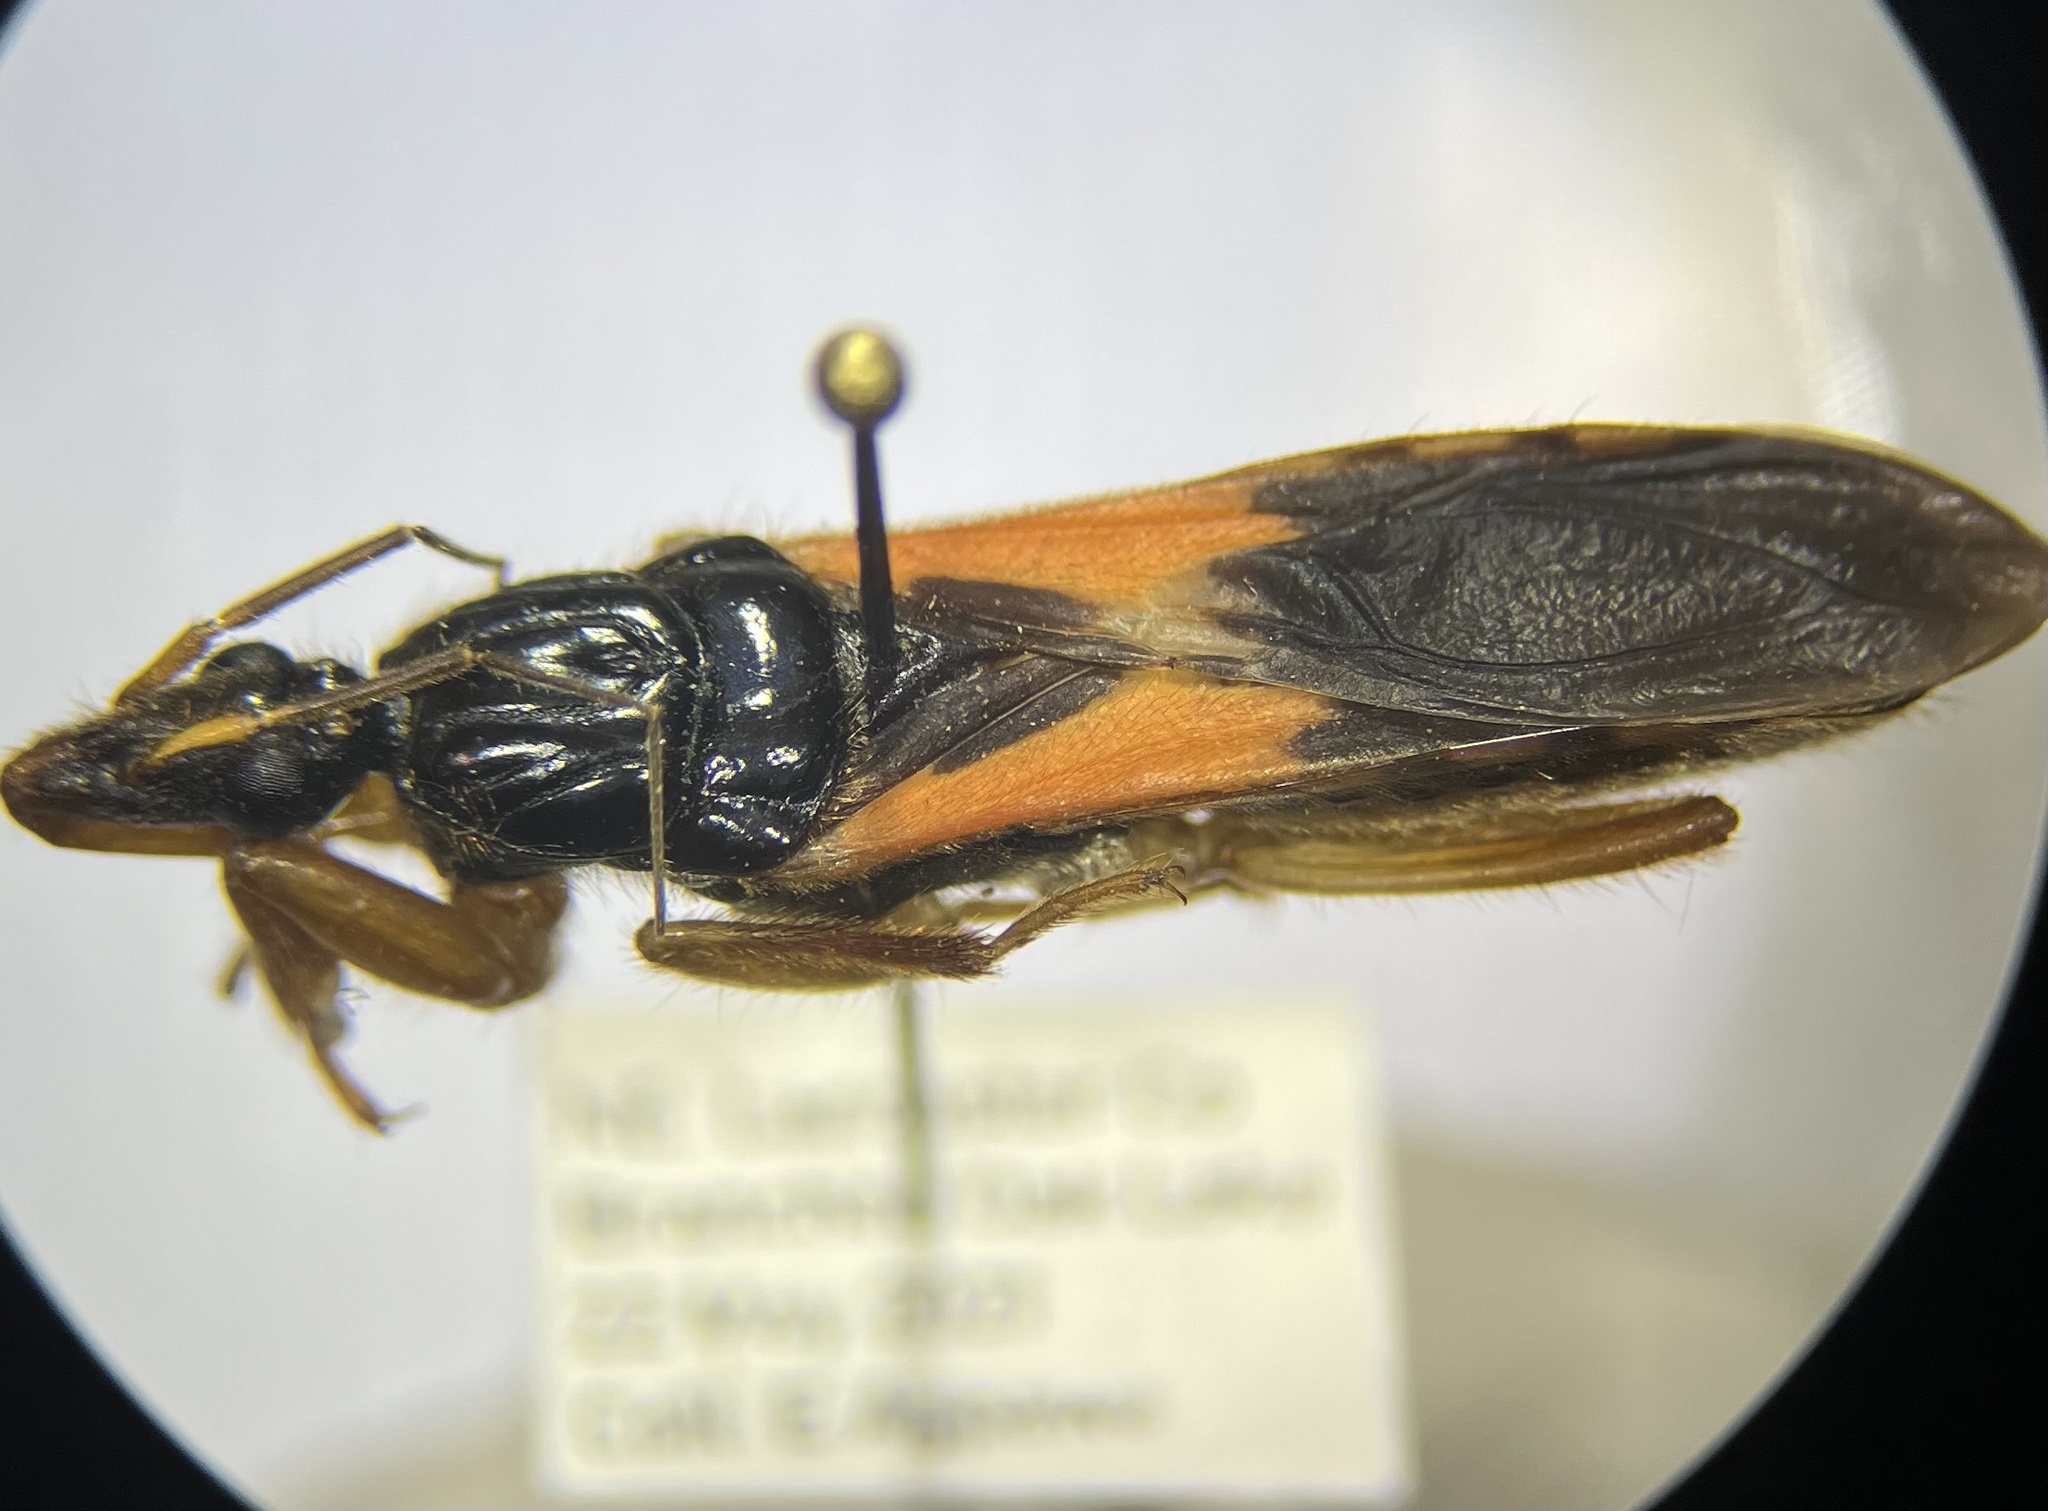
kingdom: Animalia
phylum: Arthropoda
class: Insecta
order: Hemiptera
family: Reduviidae
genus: Sirthenea
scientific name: Sirthenea stria
